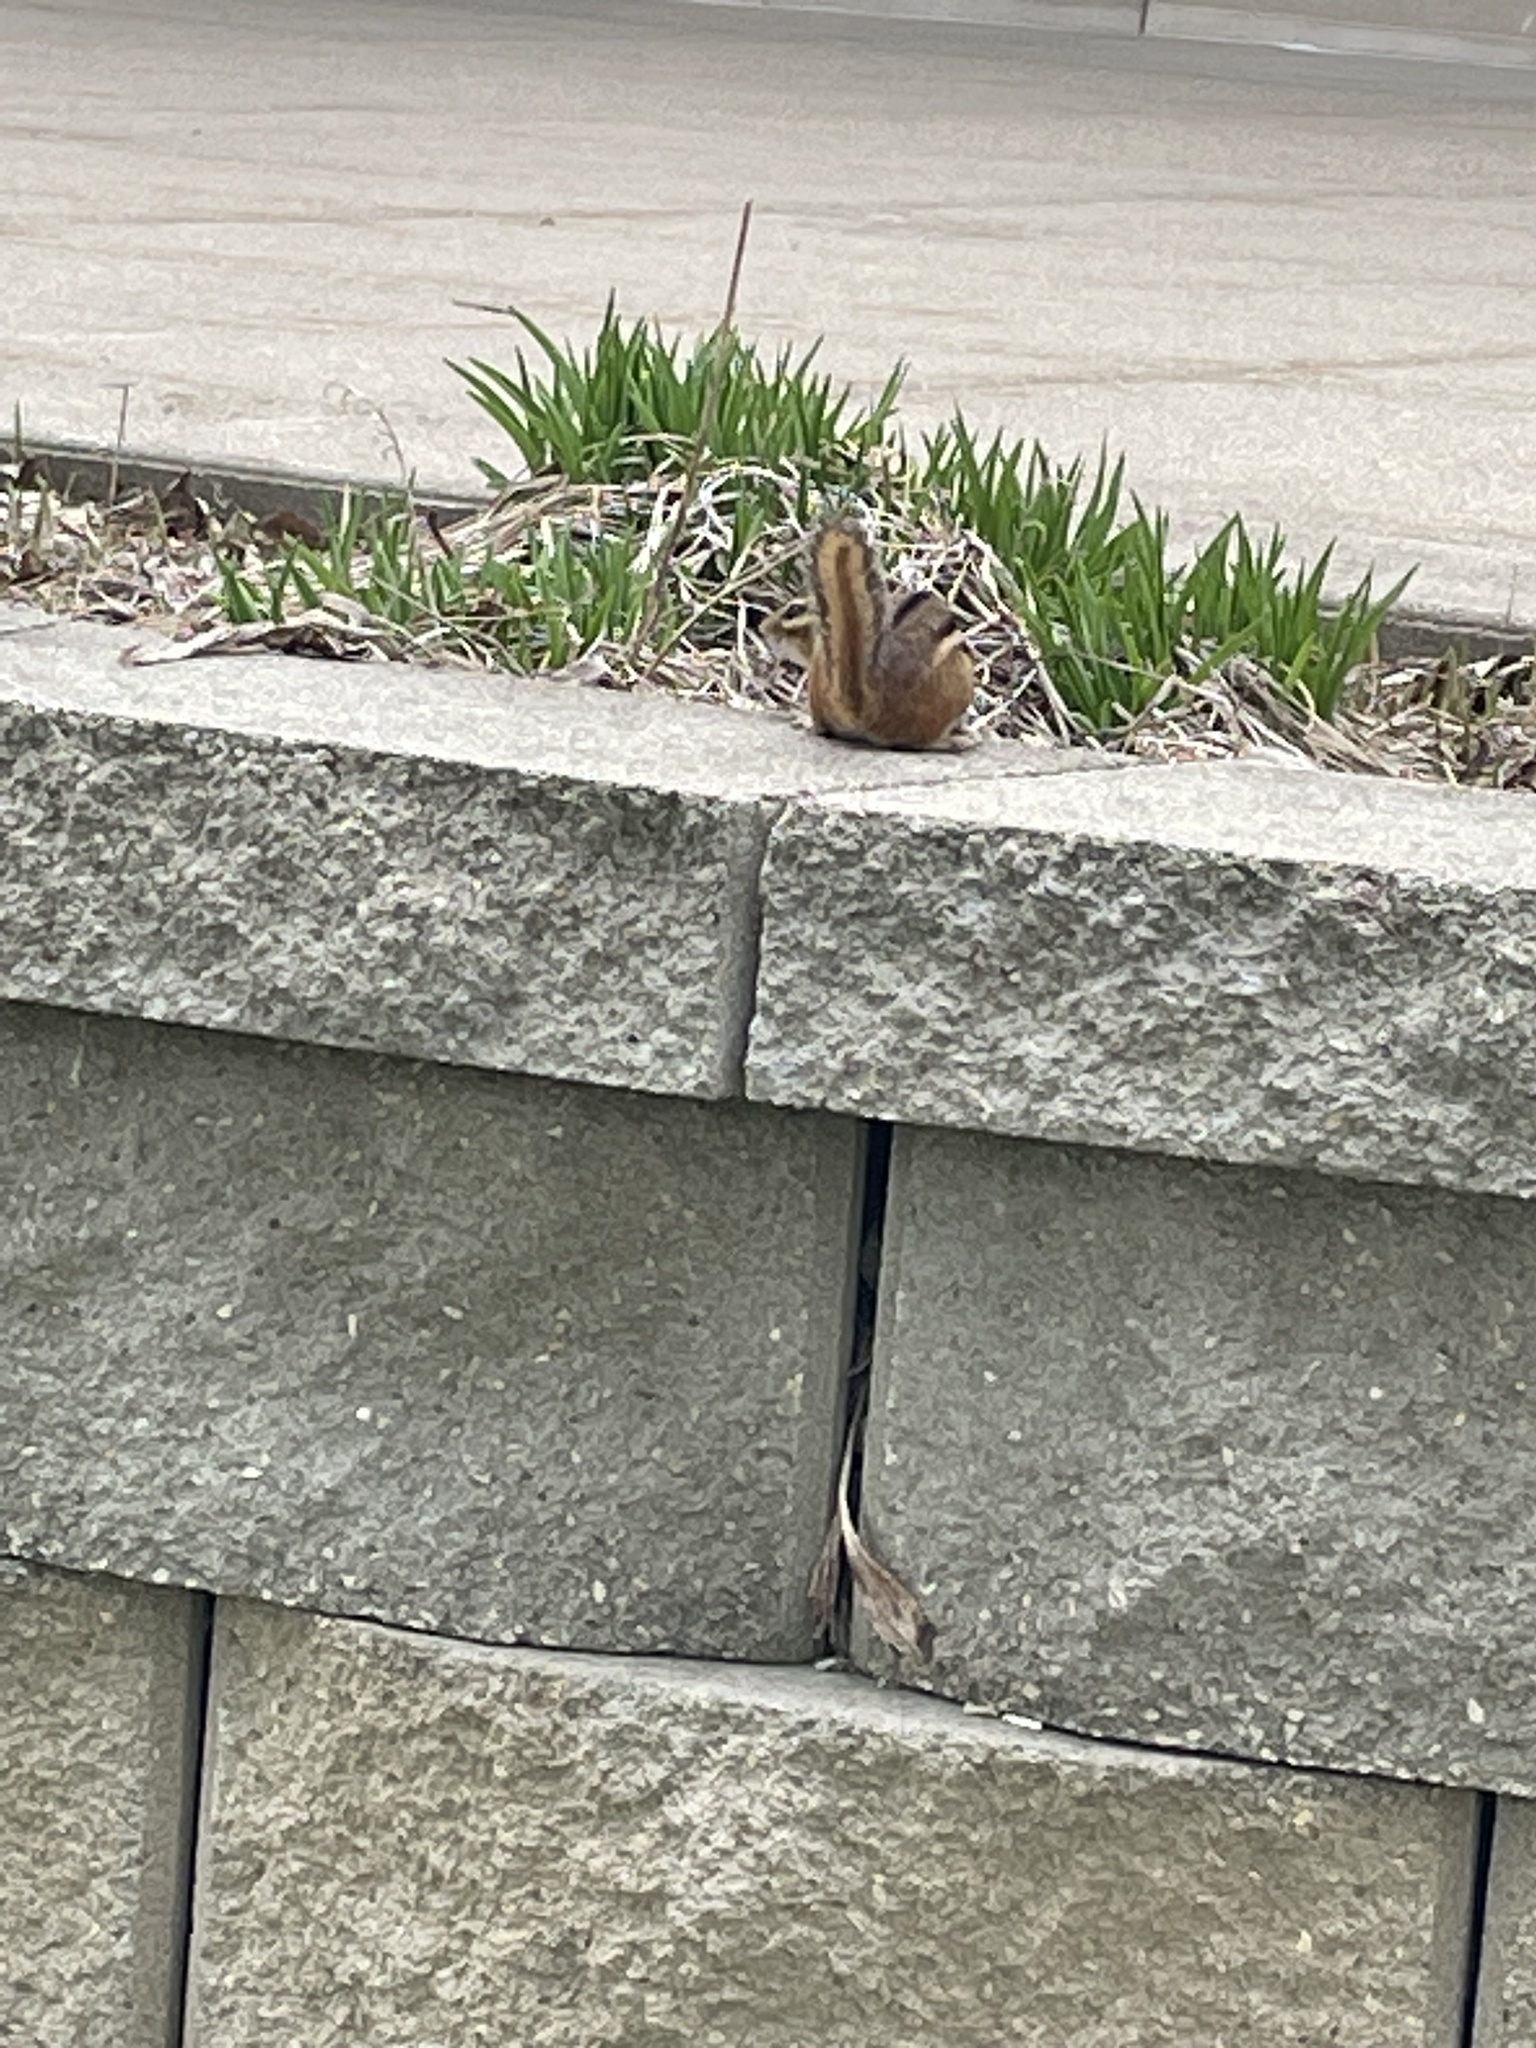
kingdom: Animalia
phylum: Chordata
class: Mammalia
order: Rodentia
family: Sciuridae
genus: Tamias
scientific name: Tamias striatus
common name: Eastern chipmunk
